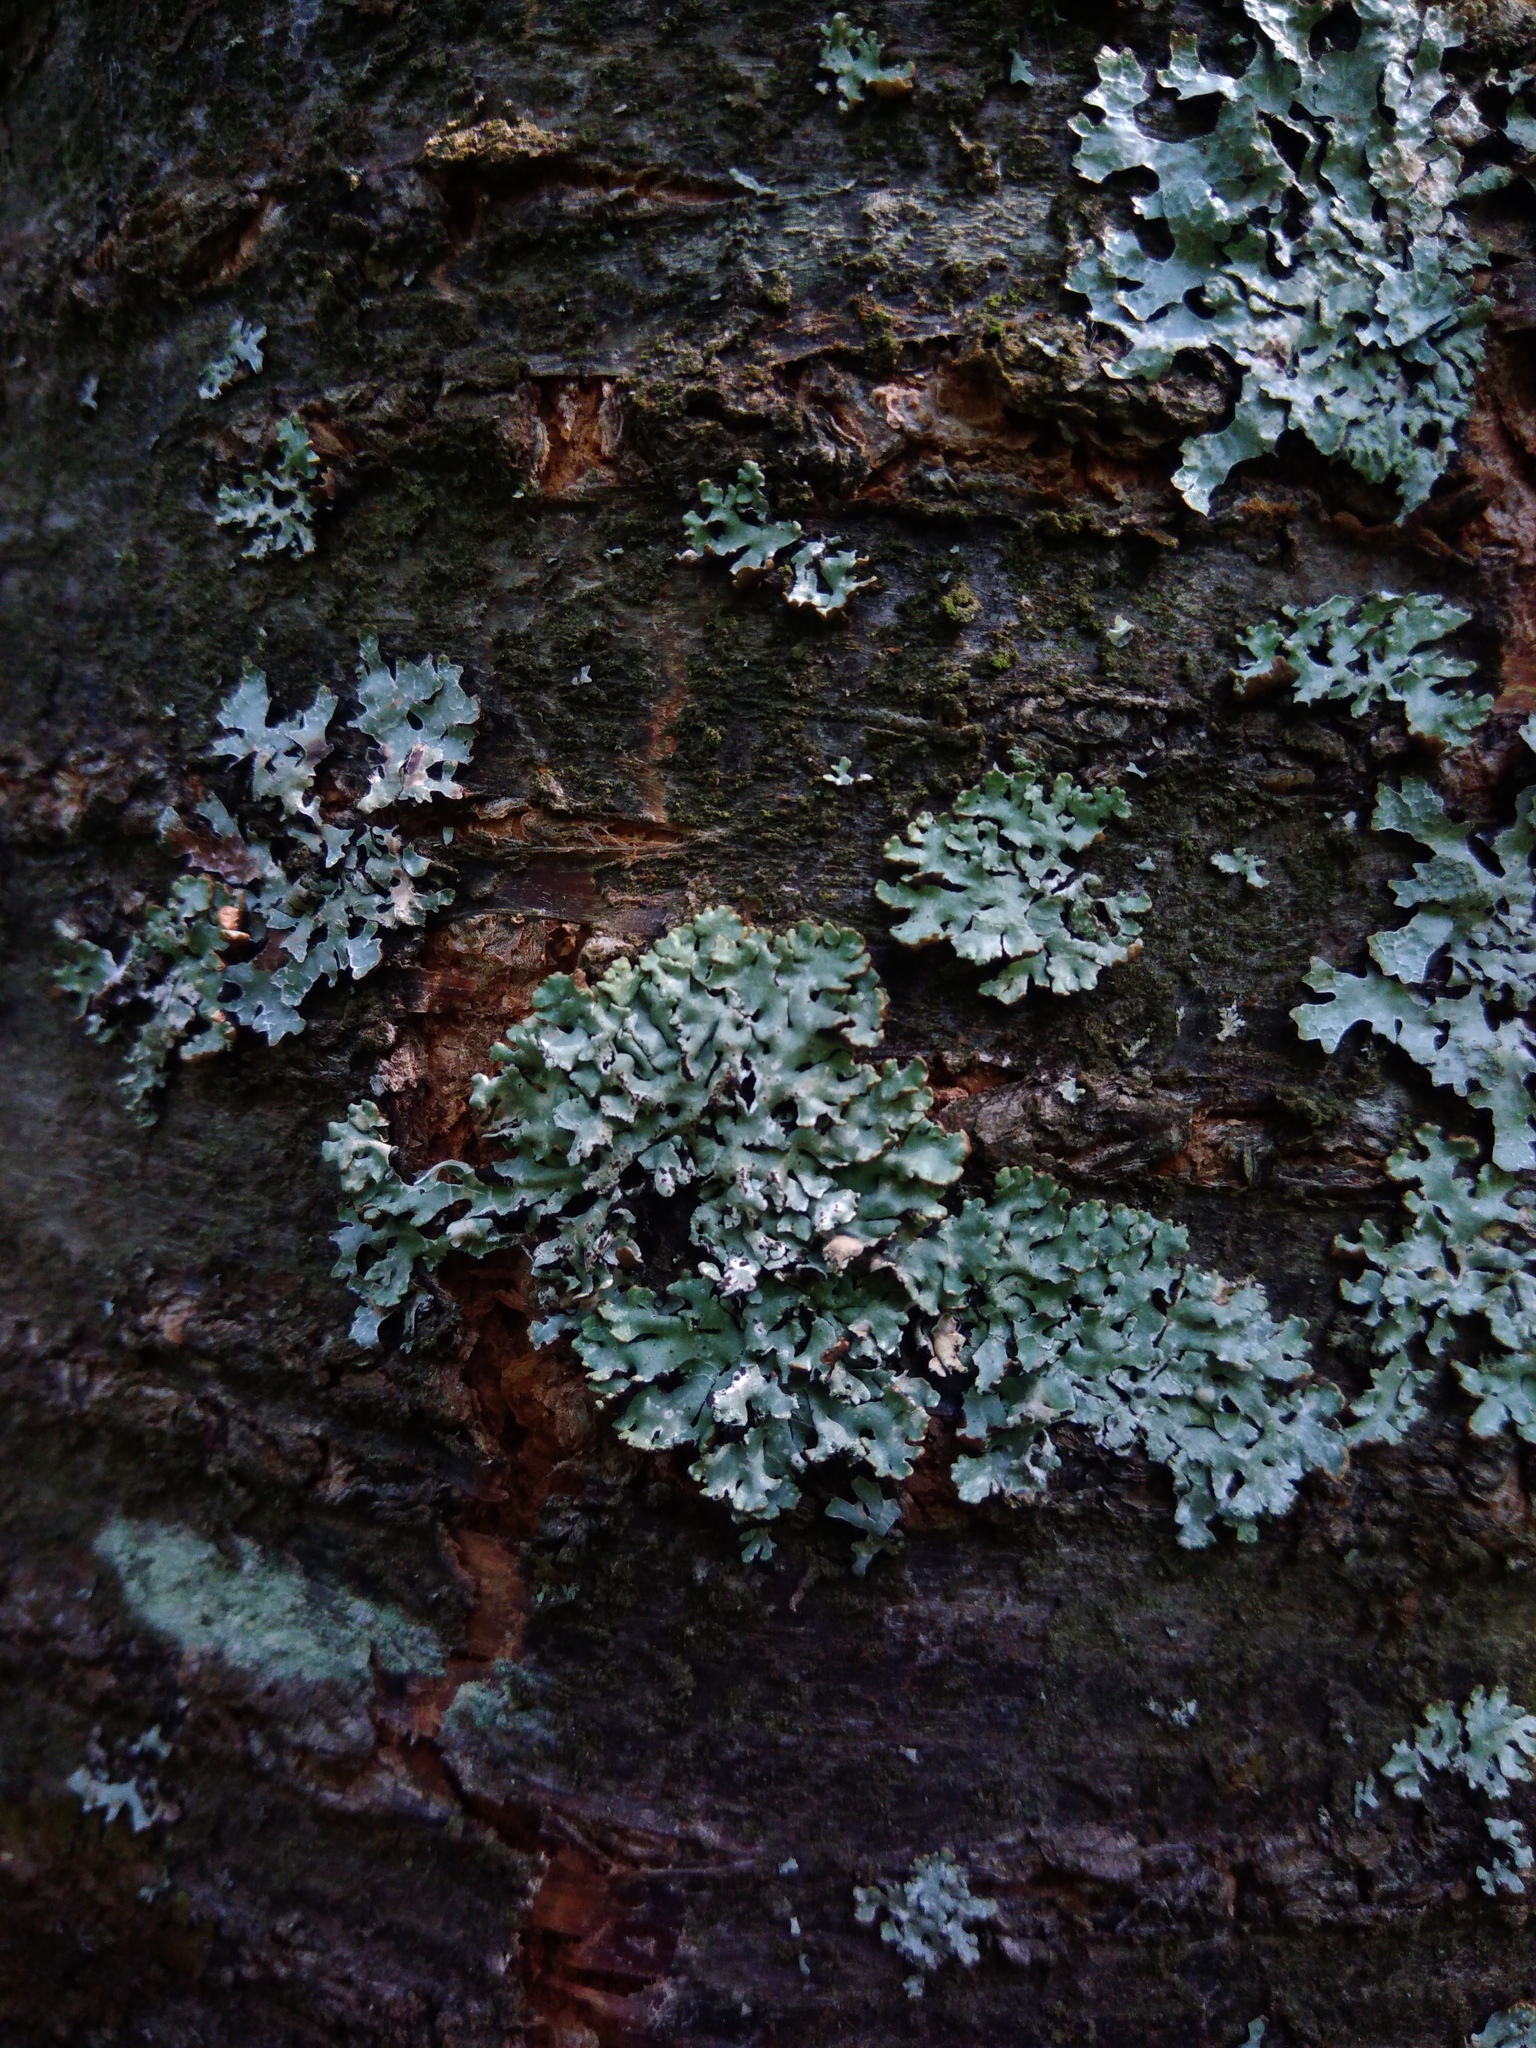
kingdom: Fungi
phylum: Ascomycota
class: Lecanoromycetes
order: Lecanorales
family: Parmeliaceae
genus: Hypogymnia
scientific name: Hypogymnia physodes
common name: Dark crottle
